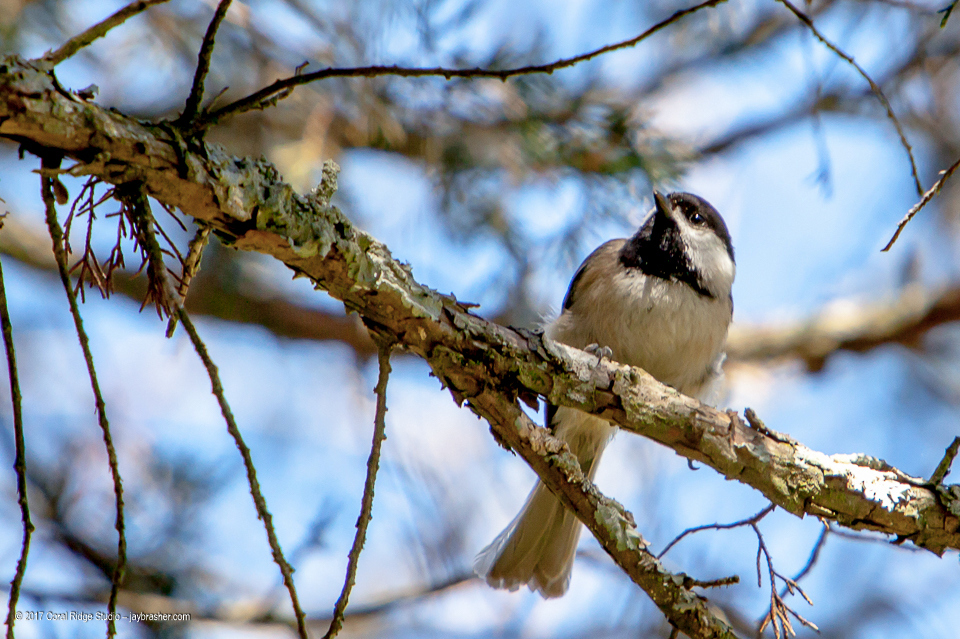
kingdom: Animalia
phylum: Chordata
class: Aves
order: Passeriformes
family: Paridae
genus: Poecile
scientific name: Poecile carolinensis
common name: Carolina chickadee
